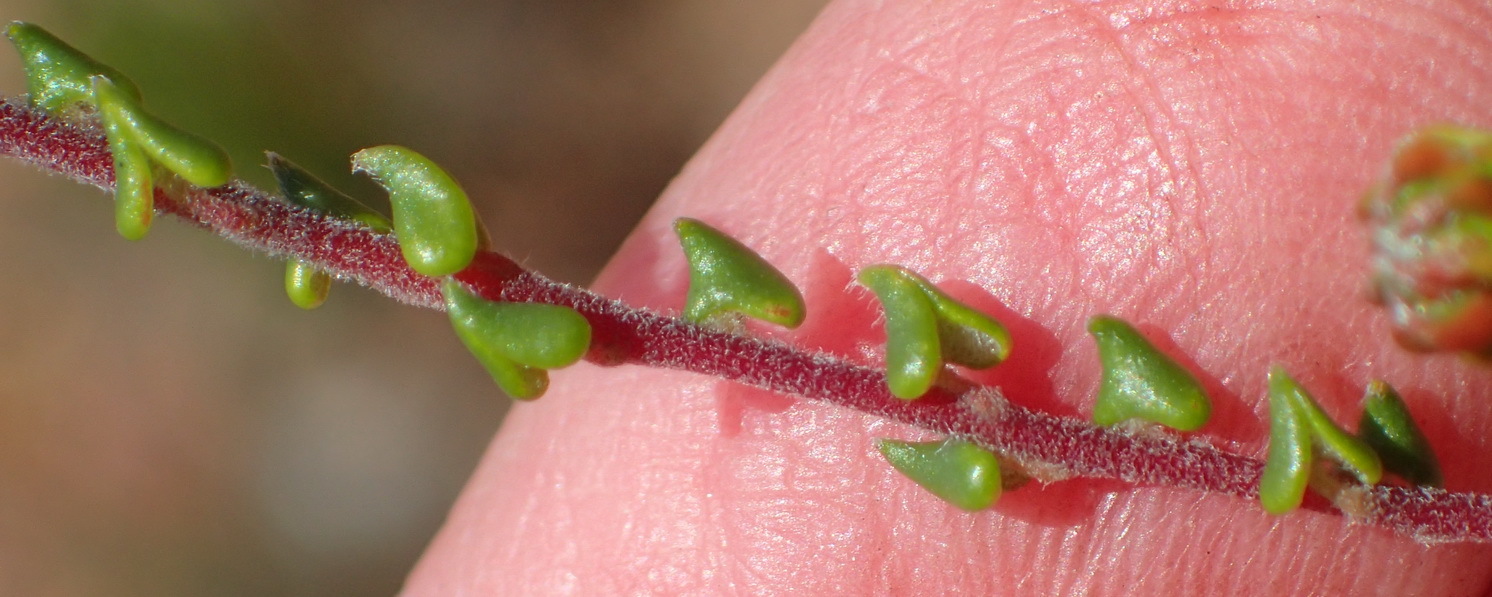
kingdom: Plantae
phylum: Tracheophyta
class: Magnoliopsida
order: Rosales
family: Rhamnaceae
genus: Phylica
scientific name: Phylica debilis
